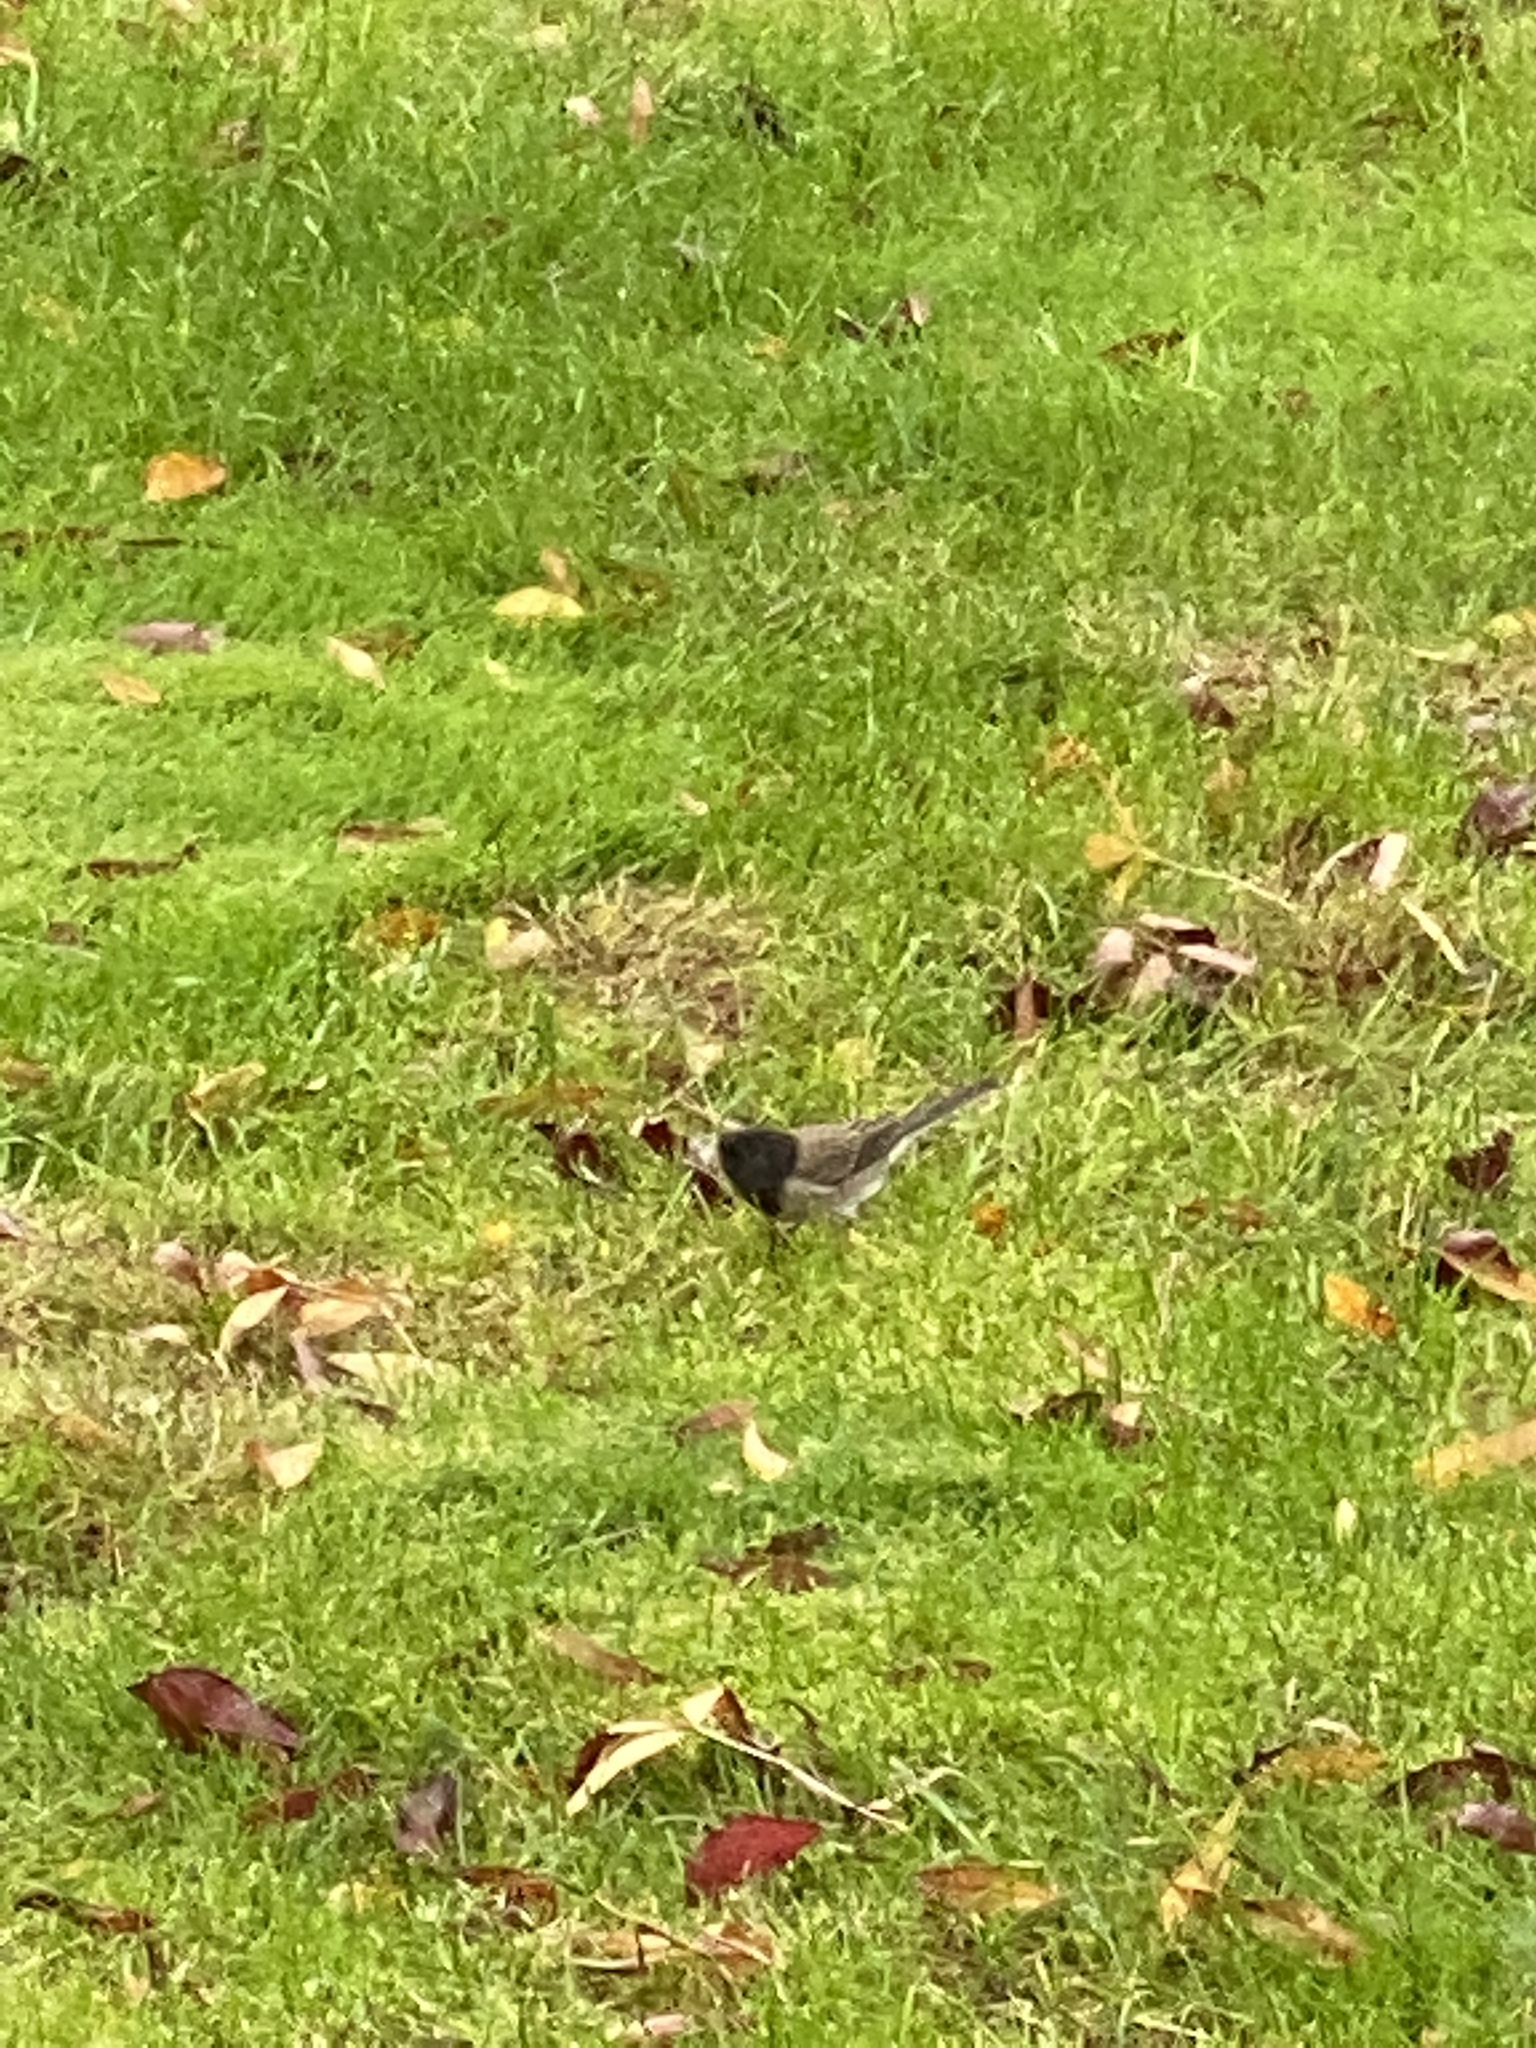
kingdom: Animalia
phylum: Chordata
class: Aves
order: Passeriformes
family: Passerellidae
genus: Junco
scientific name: Junco hyemalis
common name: Dark-eyed junco
